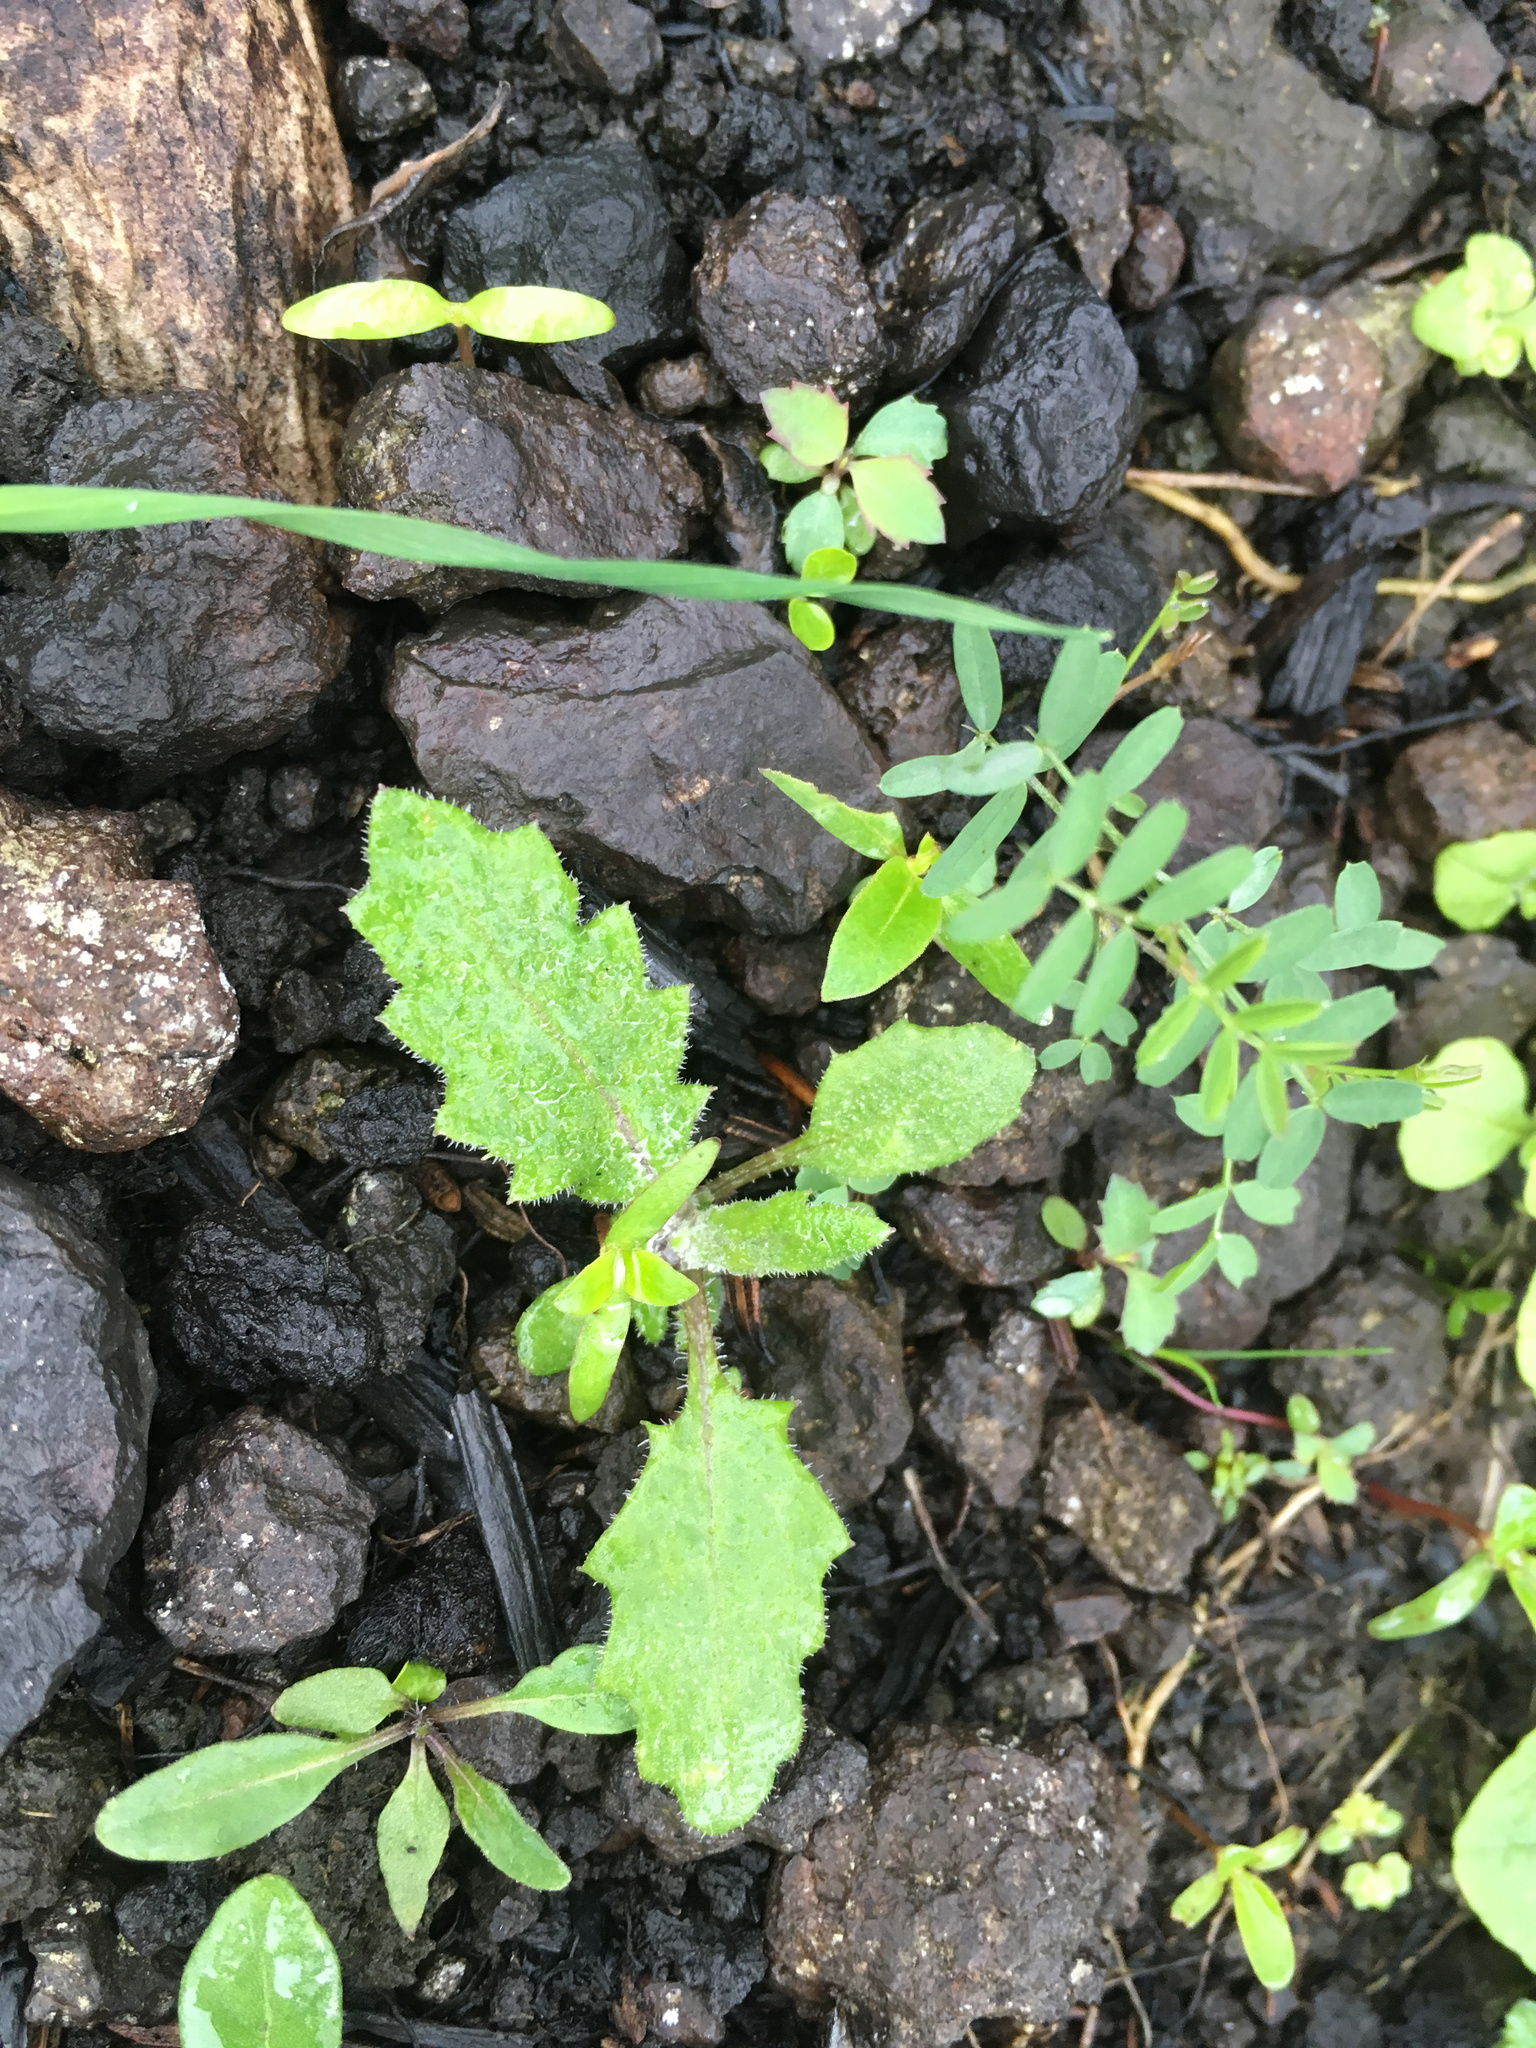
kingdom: Plantae
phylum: Tracheophyta
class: Magnoliopsida
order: Asterales
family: Asteraceae
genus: Senecio
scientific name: Senecio minimus
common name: Toothed fireweed
